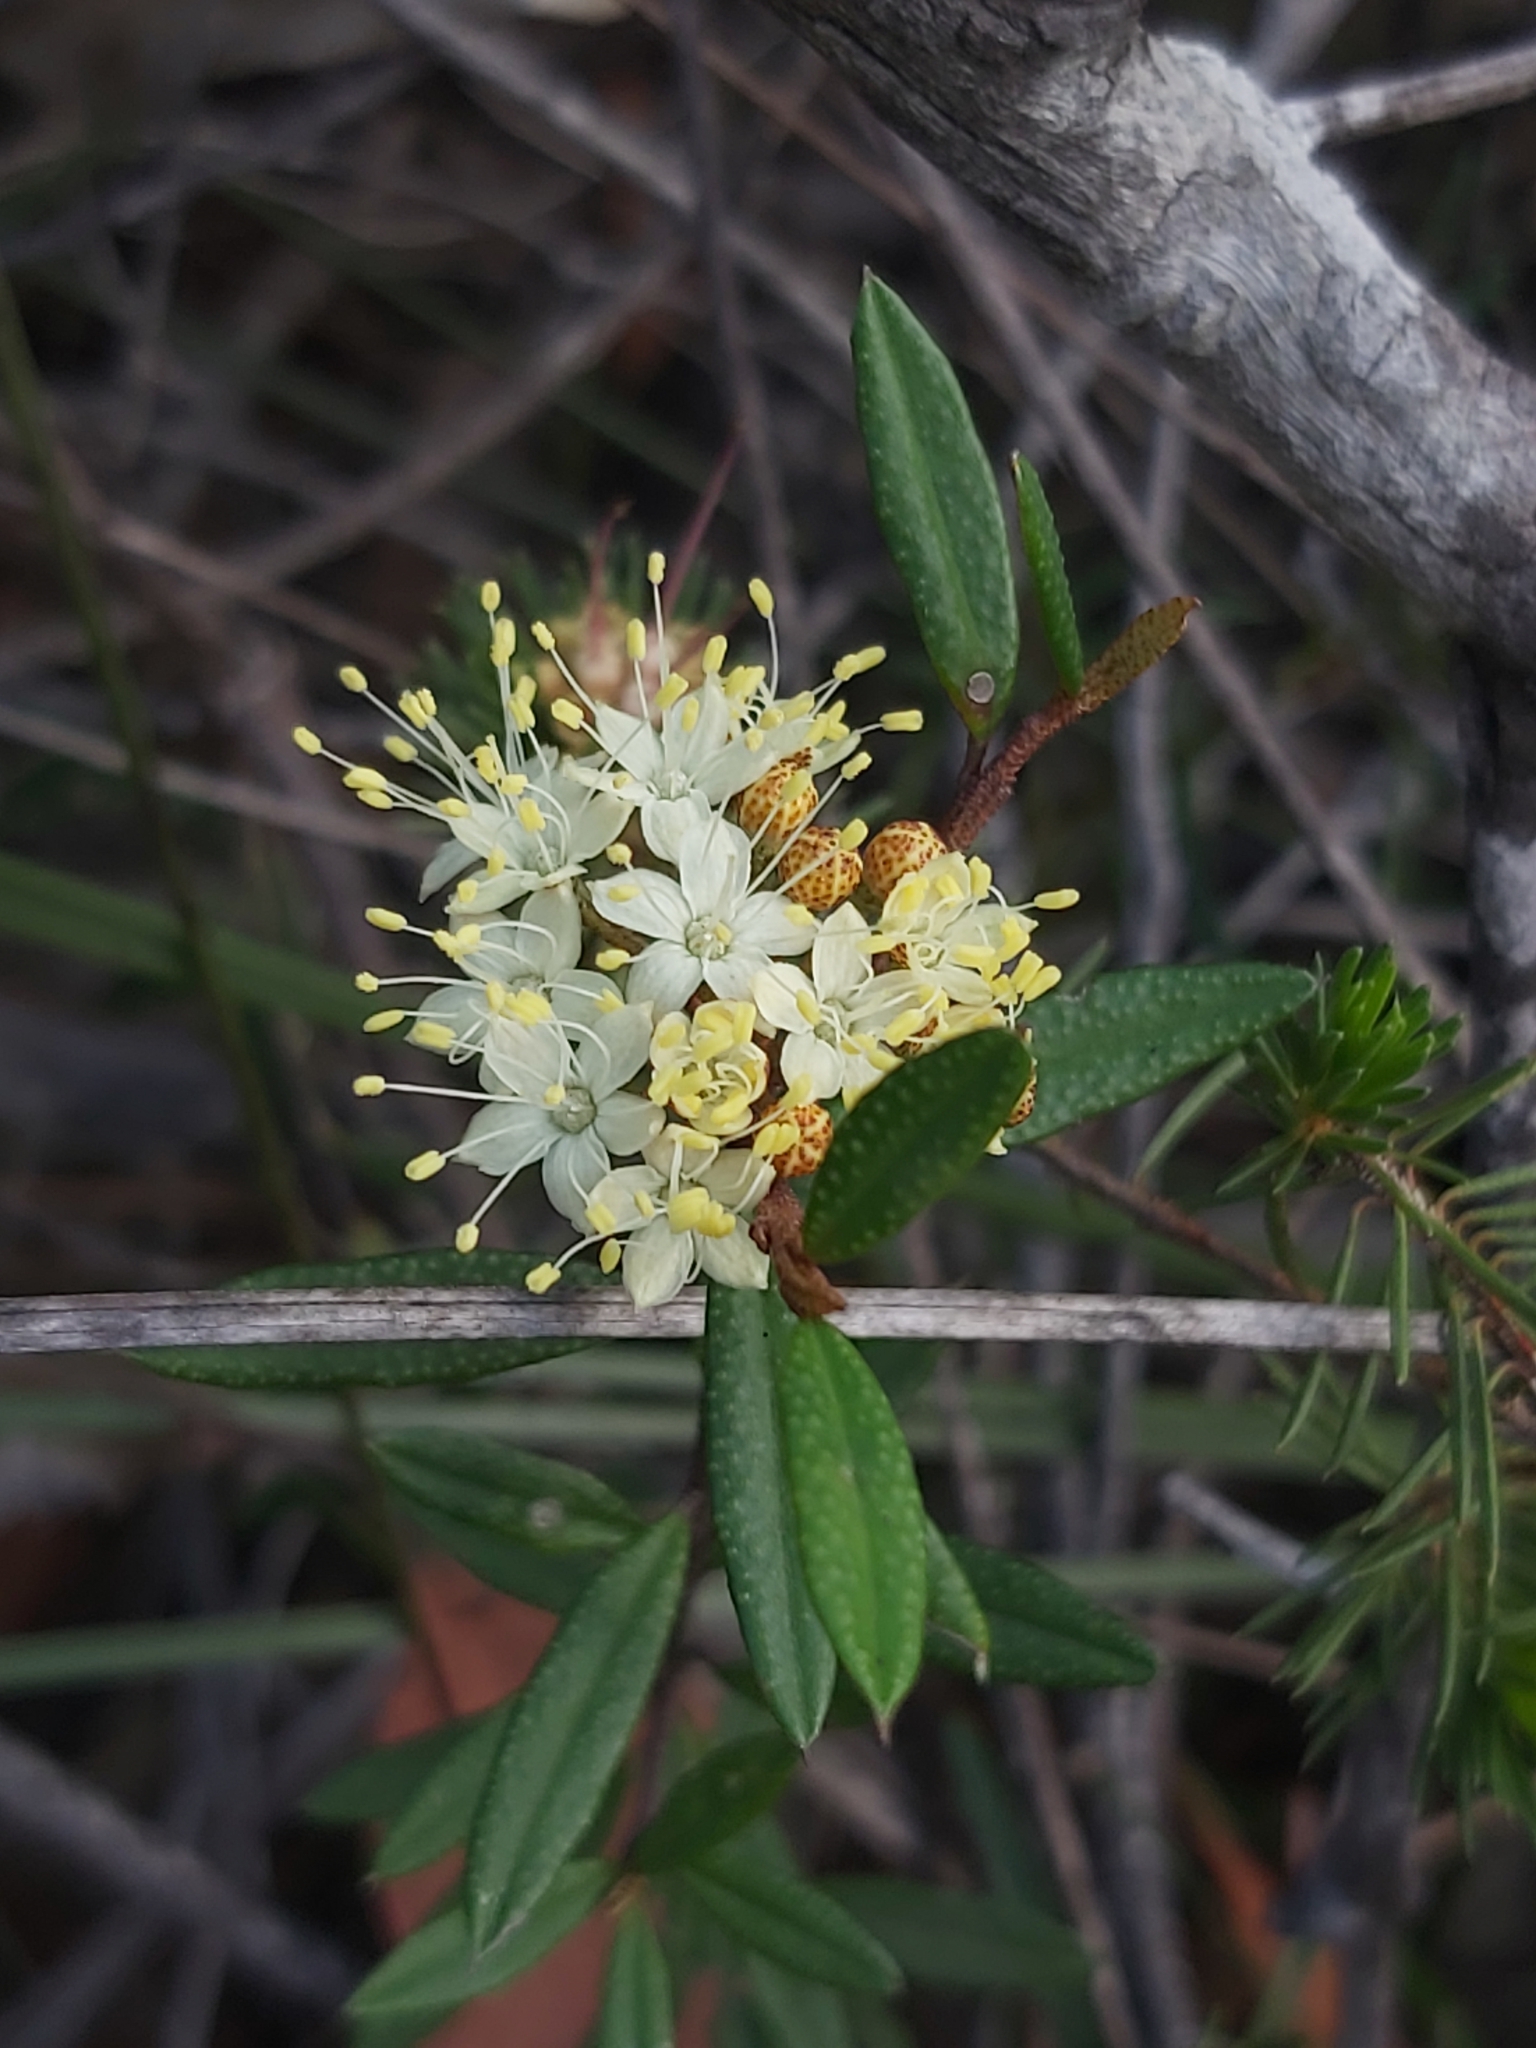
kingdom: Plantae
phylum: Tracheophyta
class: Magnoliopsida
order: Sapindales
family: Rutaceae
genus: Phebalium
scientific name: Phebalium squamulosum
